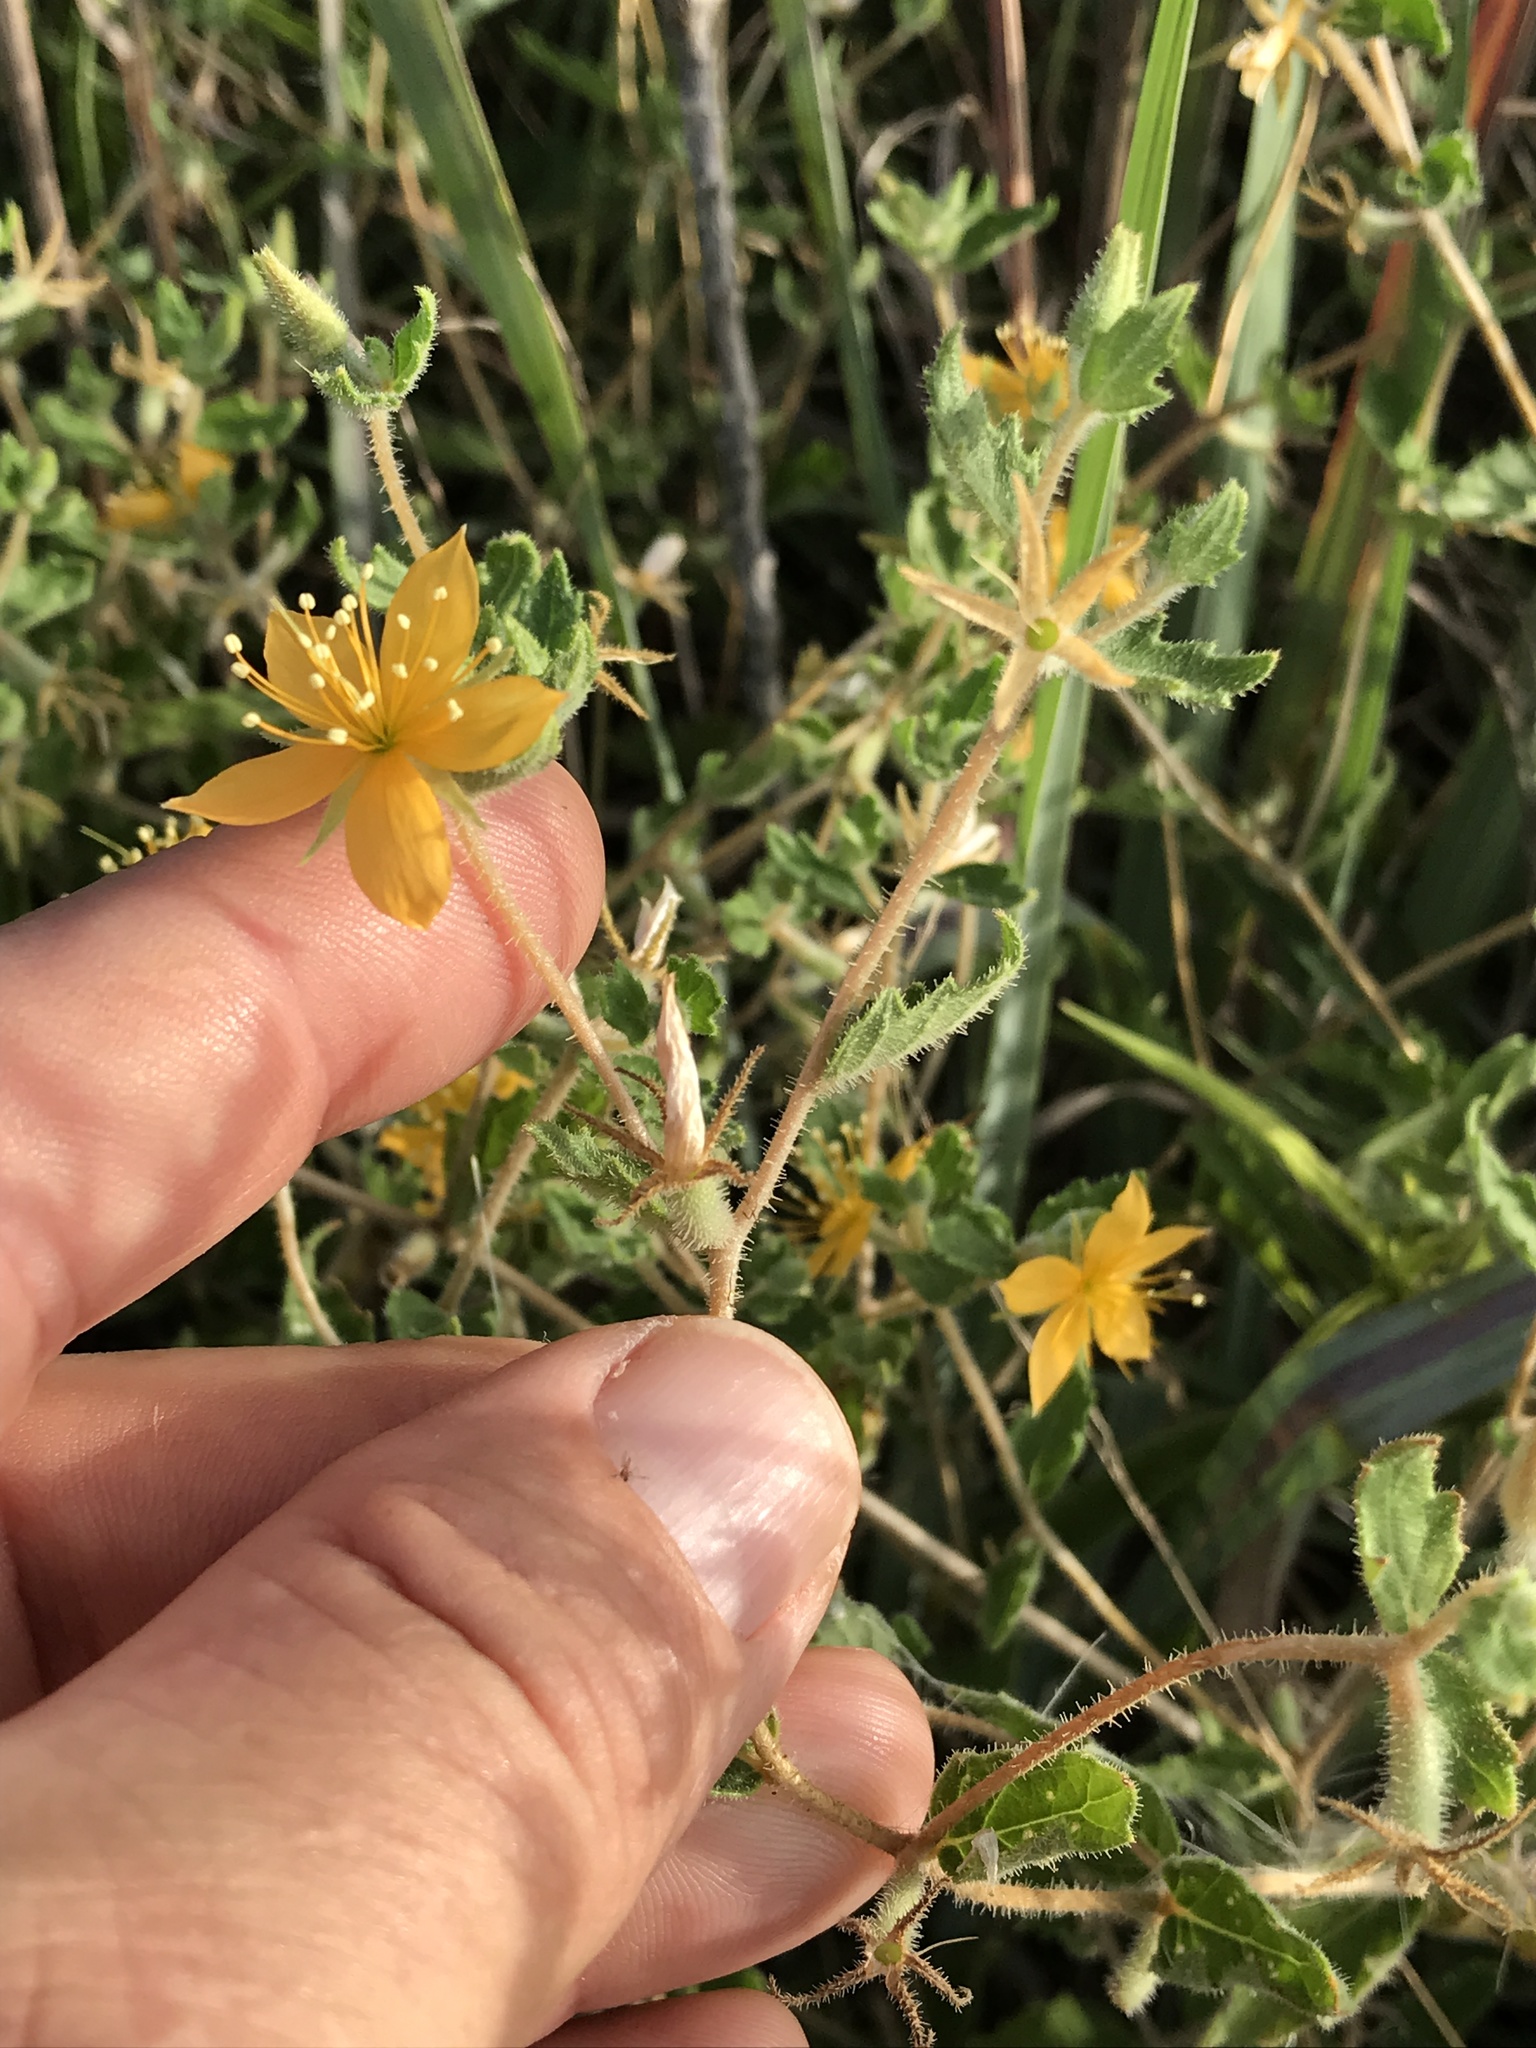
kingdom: Plantae
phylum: Tracheophyta
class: Magnoliopsida
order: Cornales
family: Loasaceae
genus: Mentzelia
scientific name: Mentzelia oligosperma
